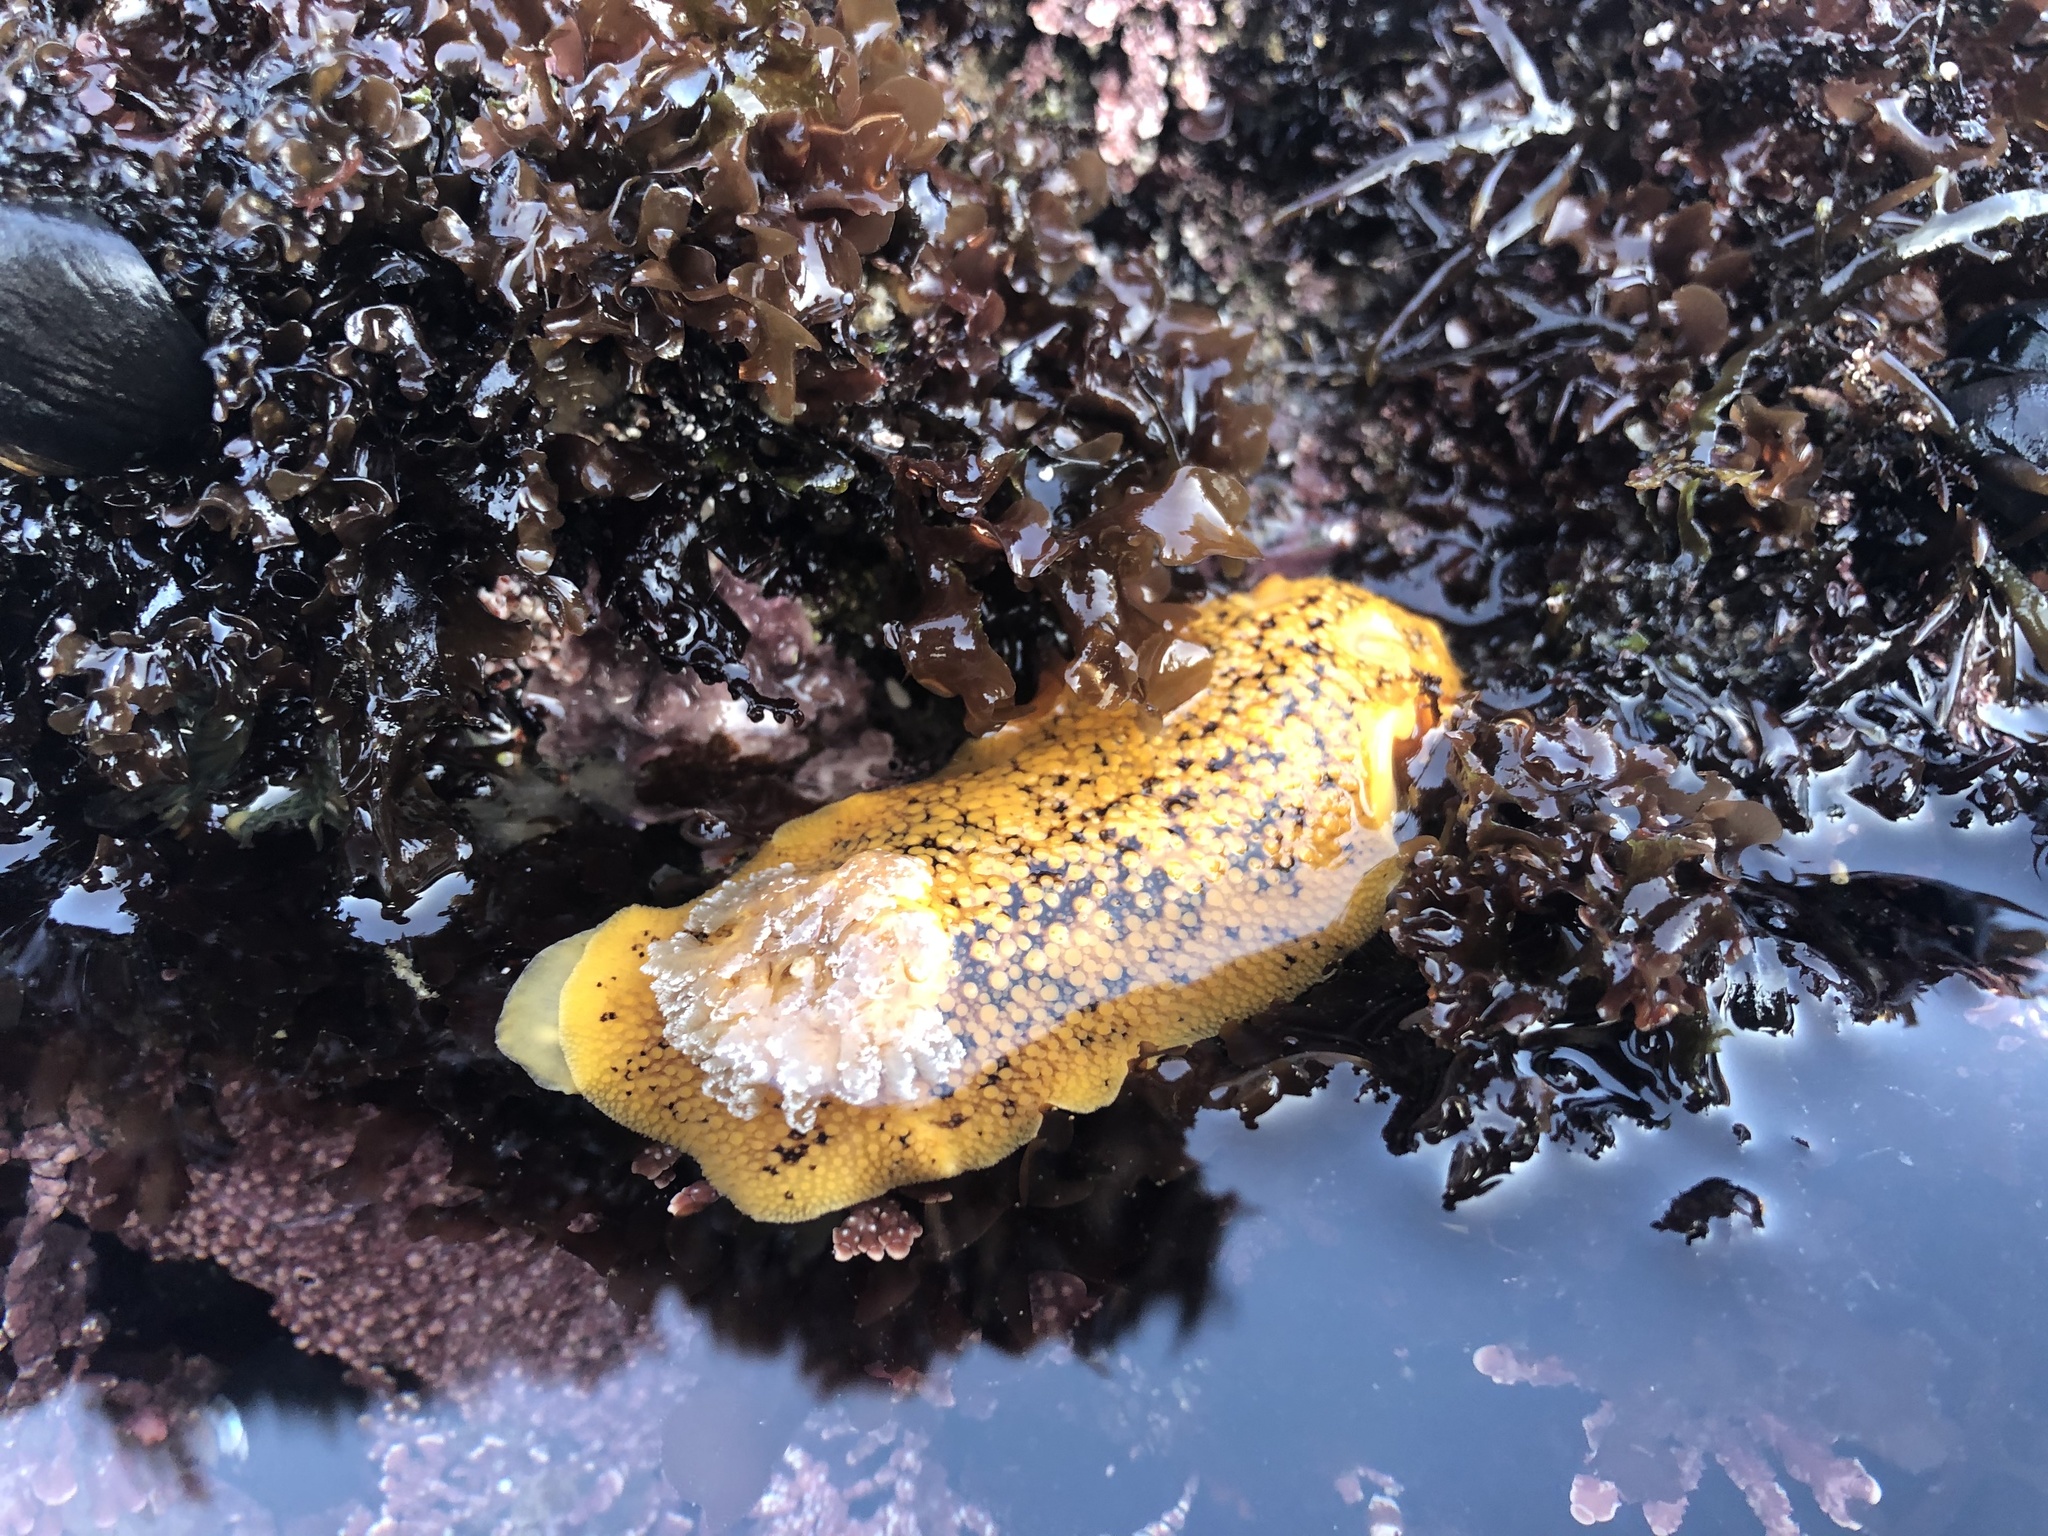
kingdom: Animalia
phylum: Mollusca
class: Gastropoda
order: Nudibranchia
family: Discodorididae
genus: Peltodoris
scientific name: Peltodoris nobilis
